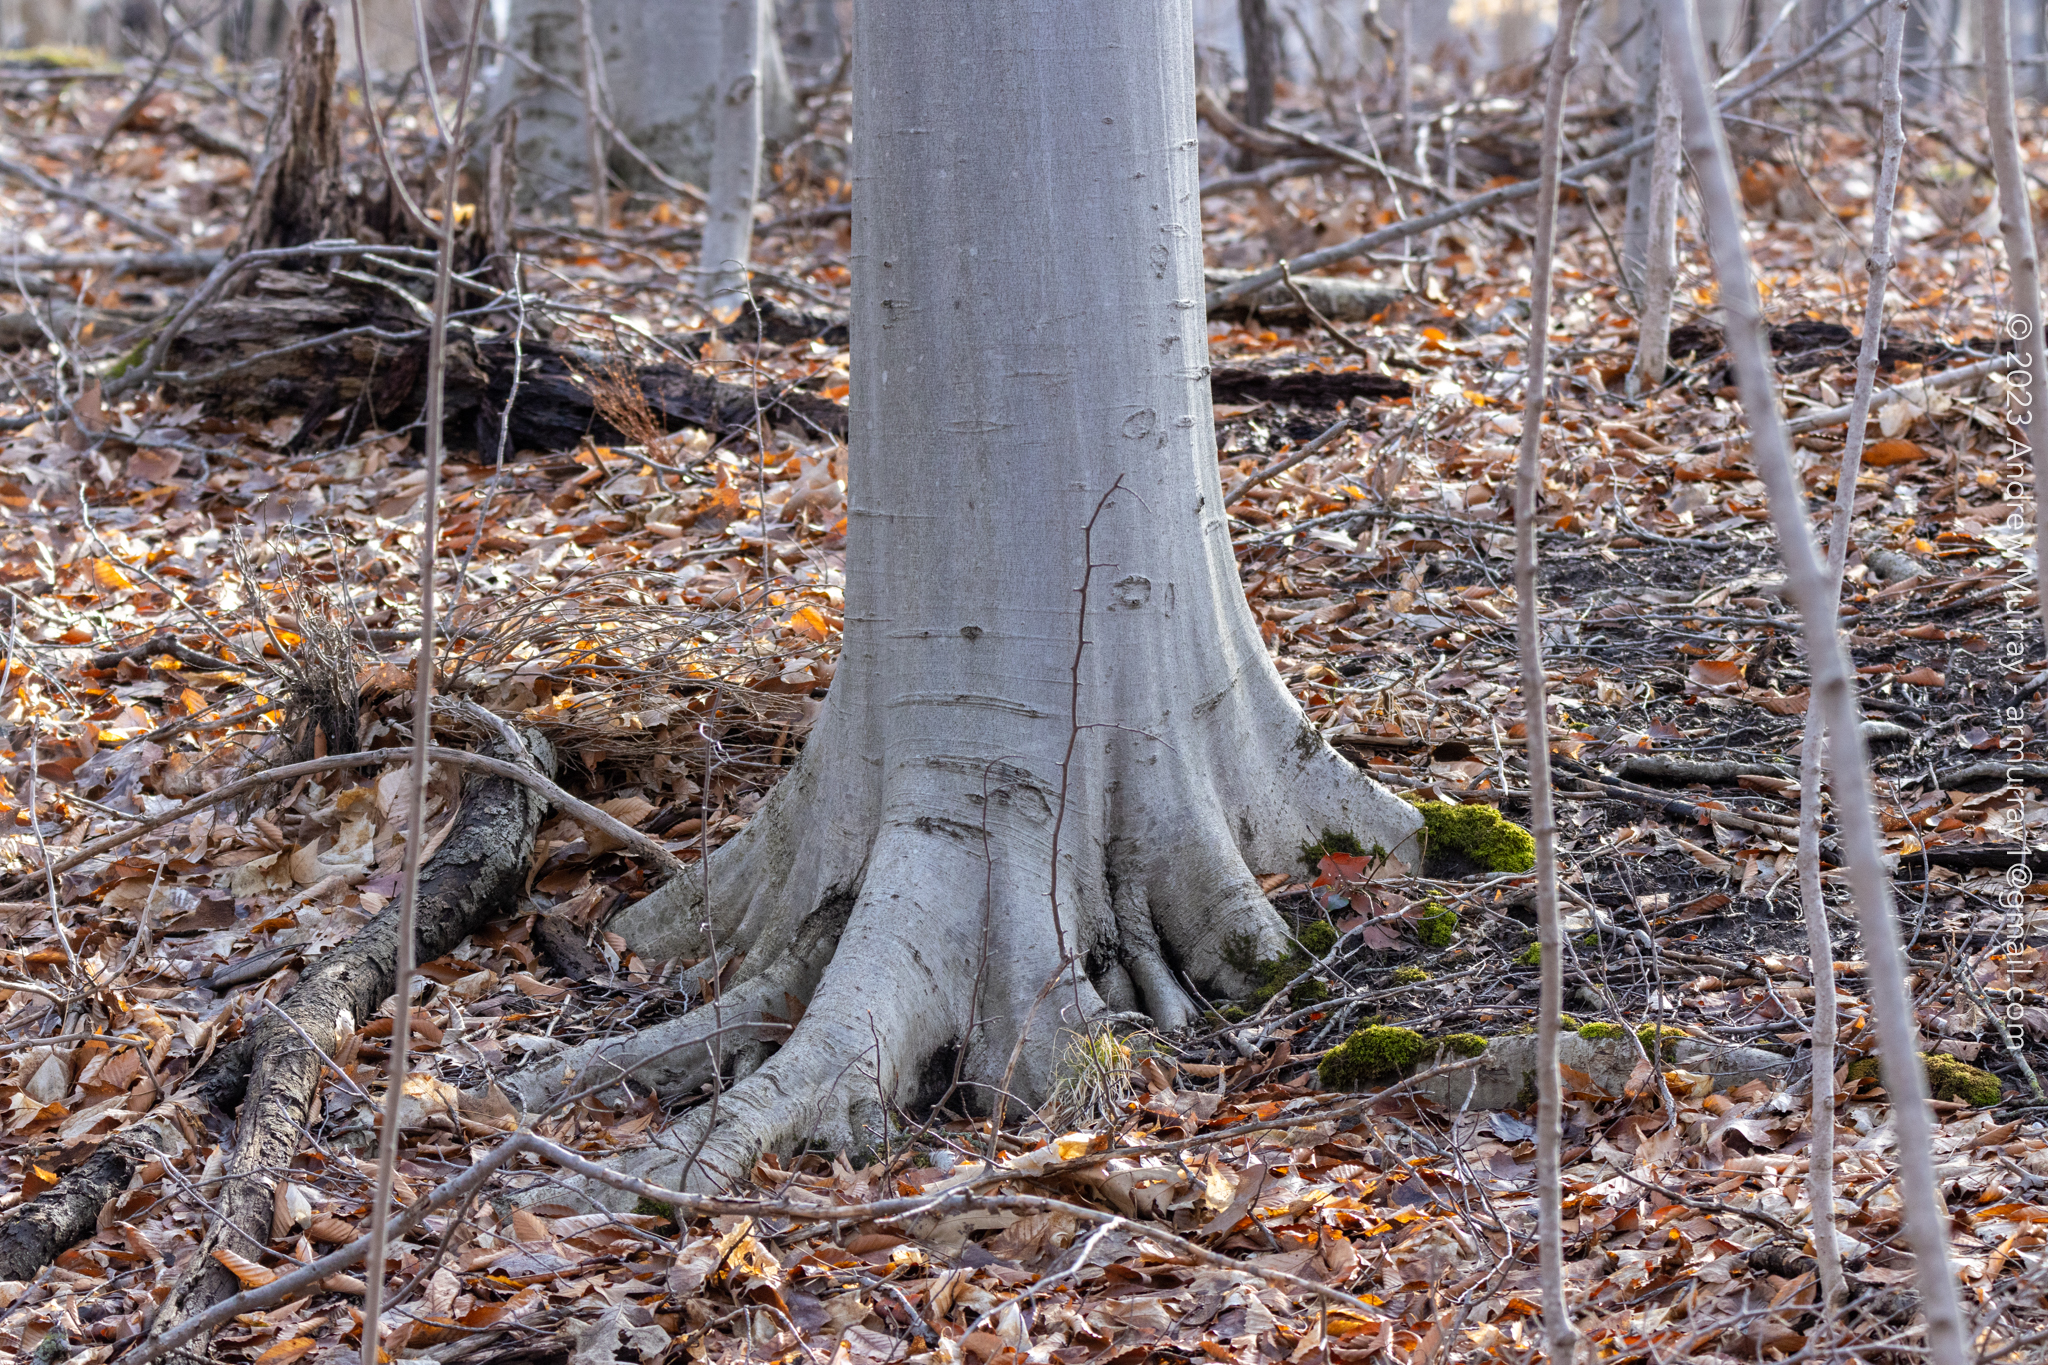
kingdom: Plantae
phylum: Tracheophyta
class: Magnoliopsida
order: Fagales
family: Fagaceae
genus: Fagus
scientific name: Fagus grandifolia
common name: American beech
